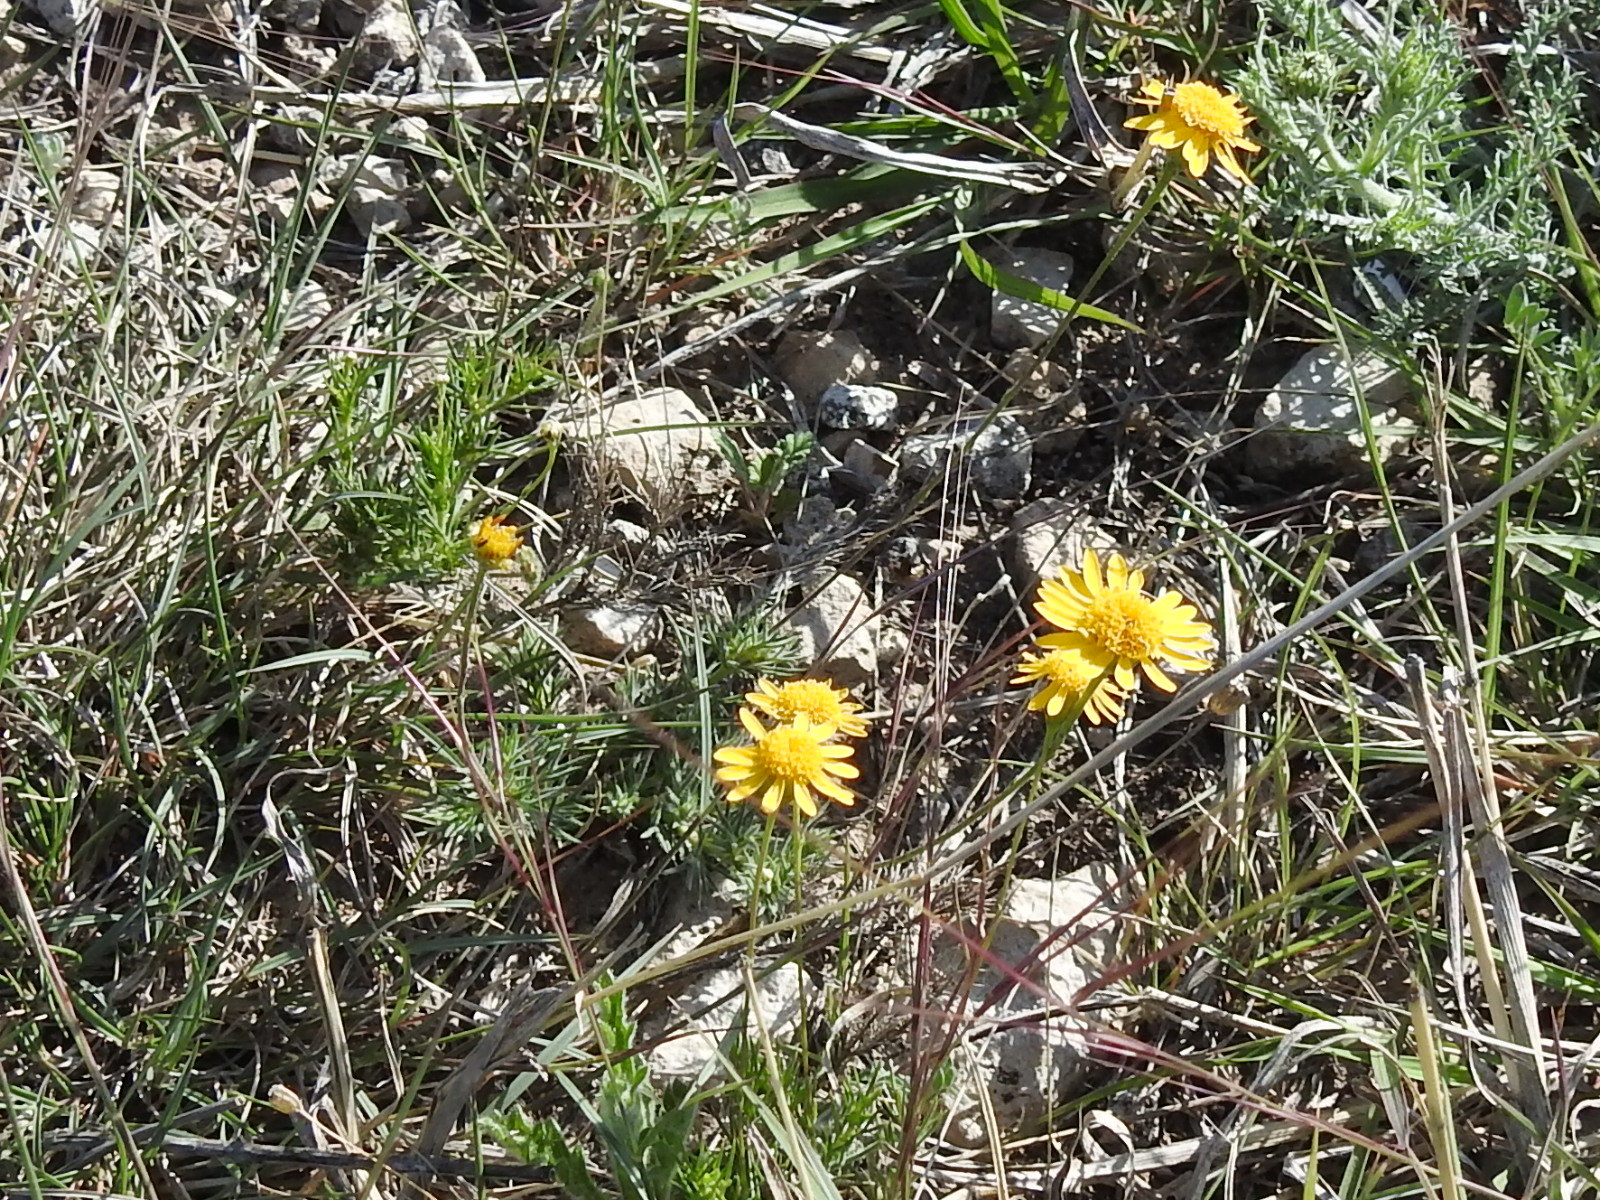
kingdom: Plantae
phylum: Tracheophyta
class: Magnoliopsida
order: Asterales
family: Asteraceae
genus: Thymophylla
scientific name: Thymophylla pentachaeta
